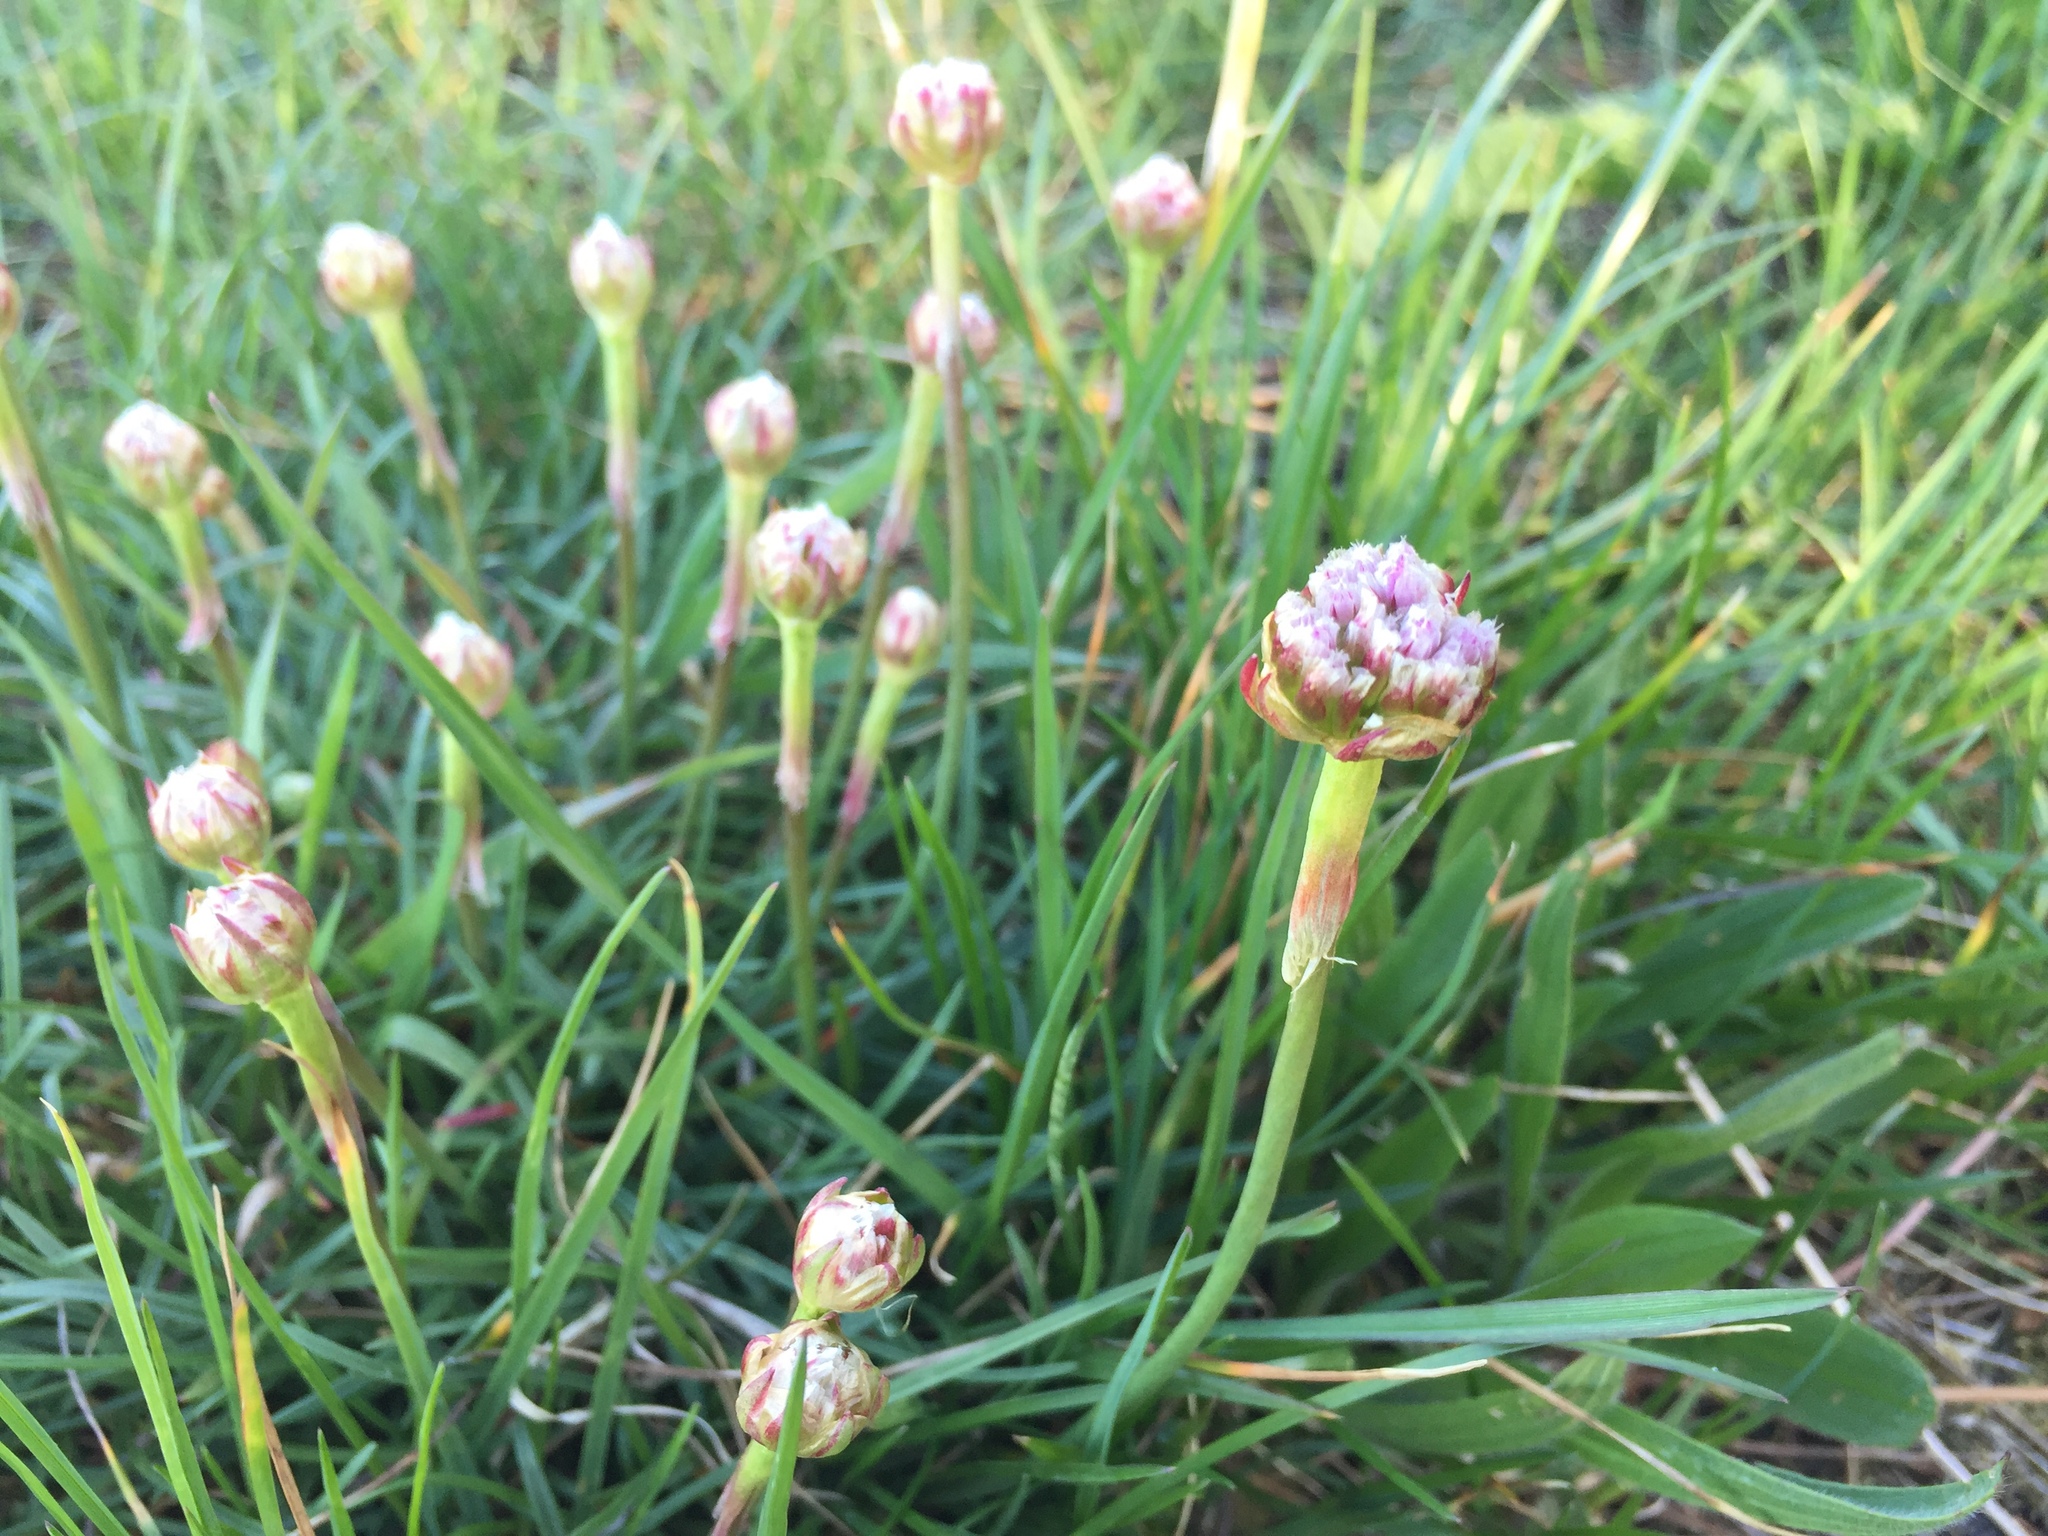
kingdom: Plantae
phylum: Tracheophyta
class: Magnoliopsida
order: Caryophyllales
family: Plumbaginaceae
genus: Armeria
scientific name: Armeria maritima
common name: Thrift
